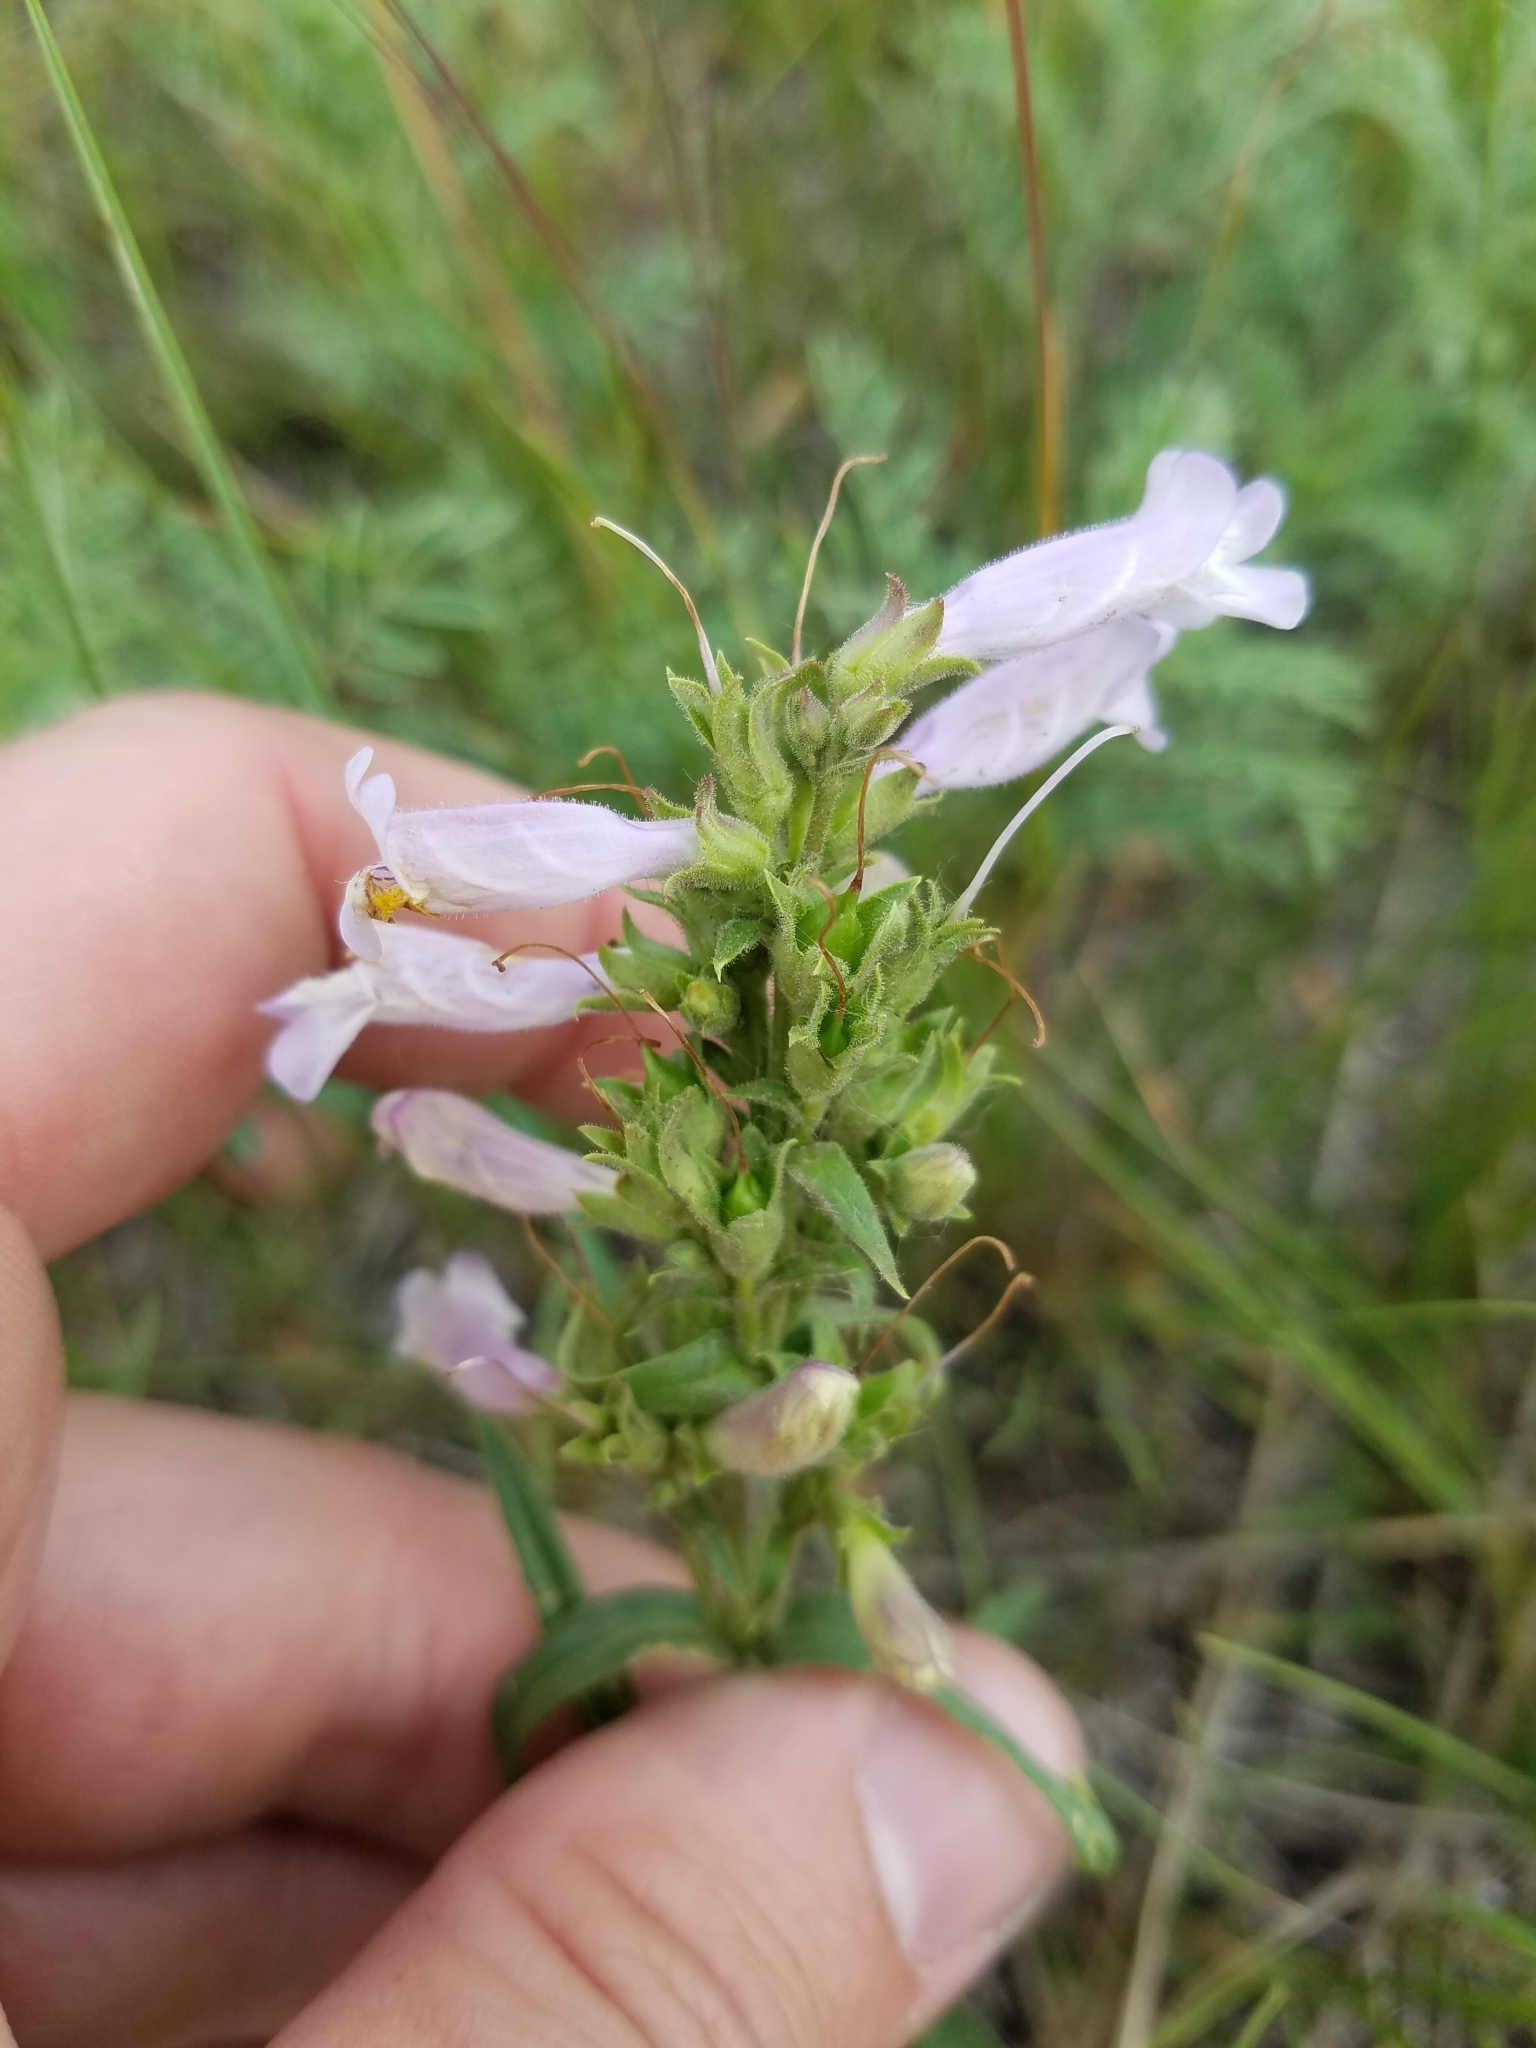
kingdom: Plantae
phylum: Tracheophyta
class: Magnoliopsida
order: Lamiales
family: Plantaginaceae
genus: Penstemon
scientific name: Penstemon gracilis
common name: Slender beardtongue
